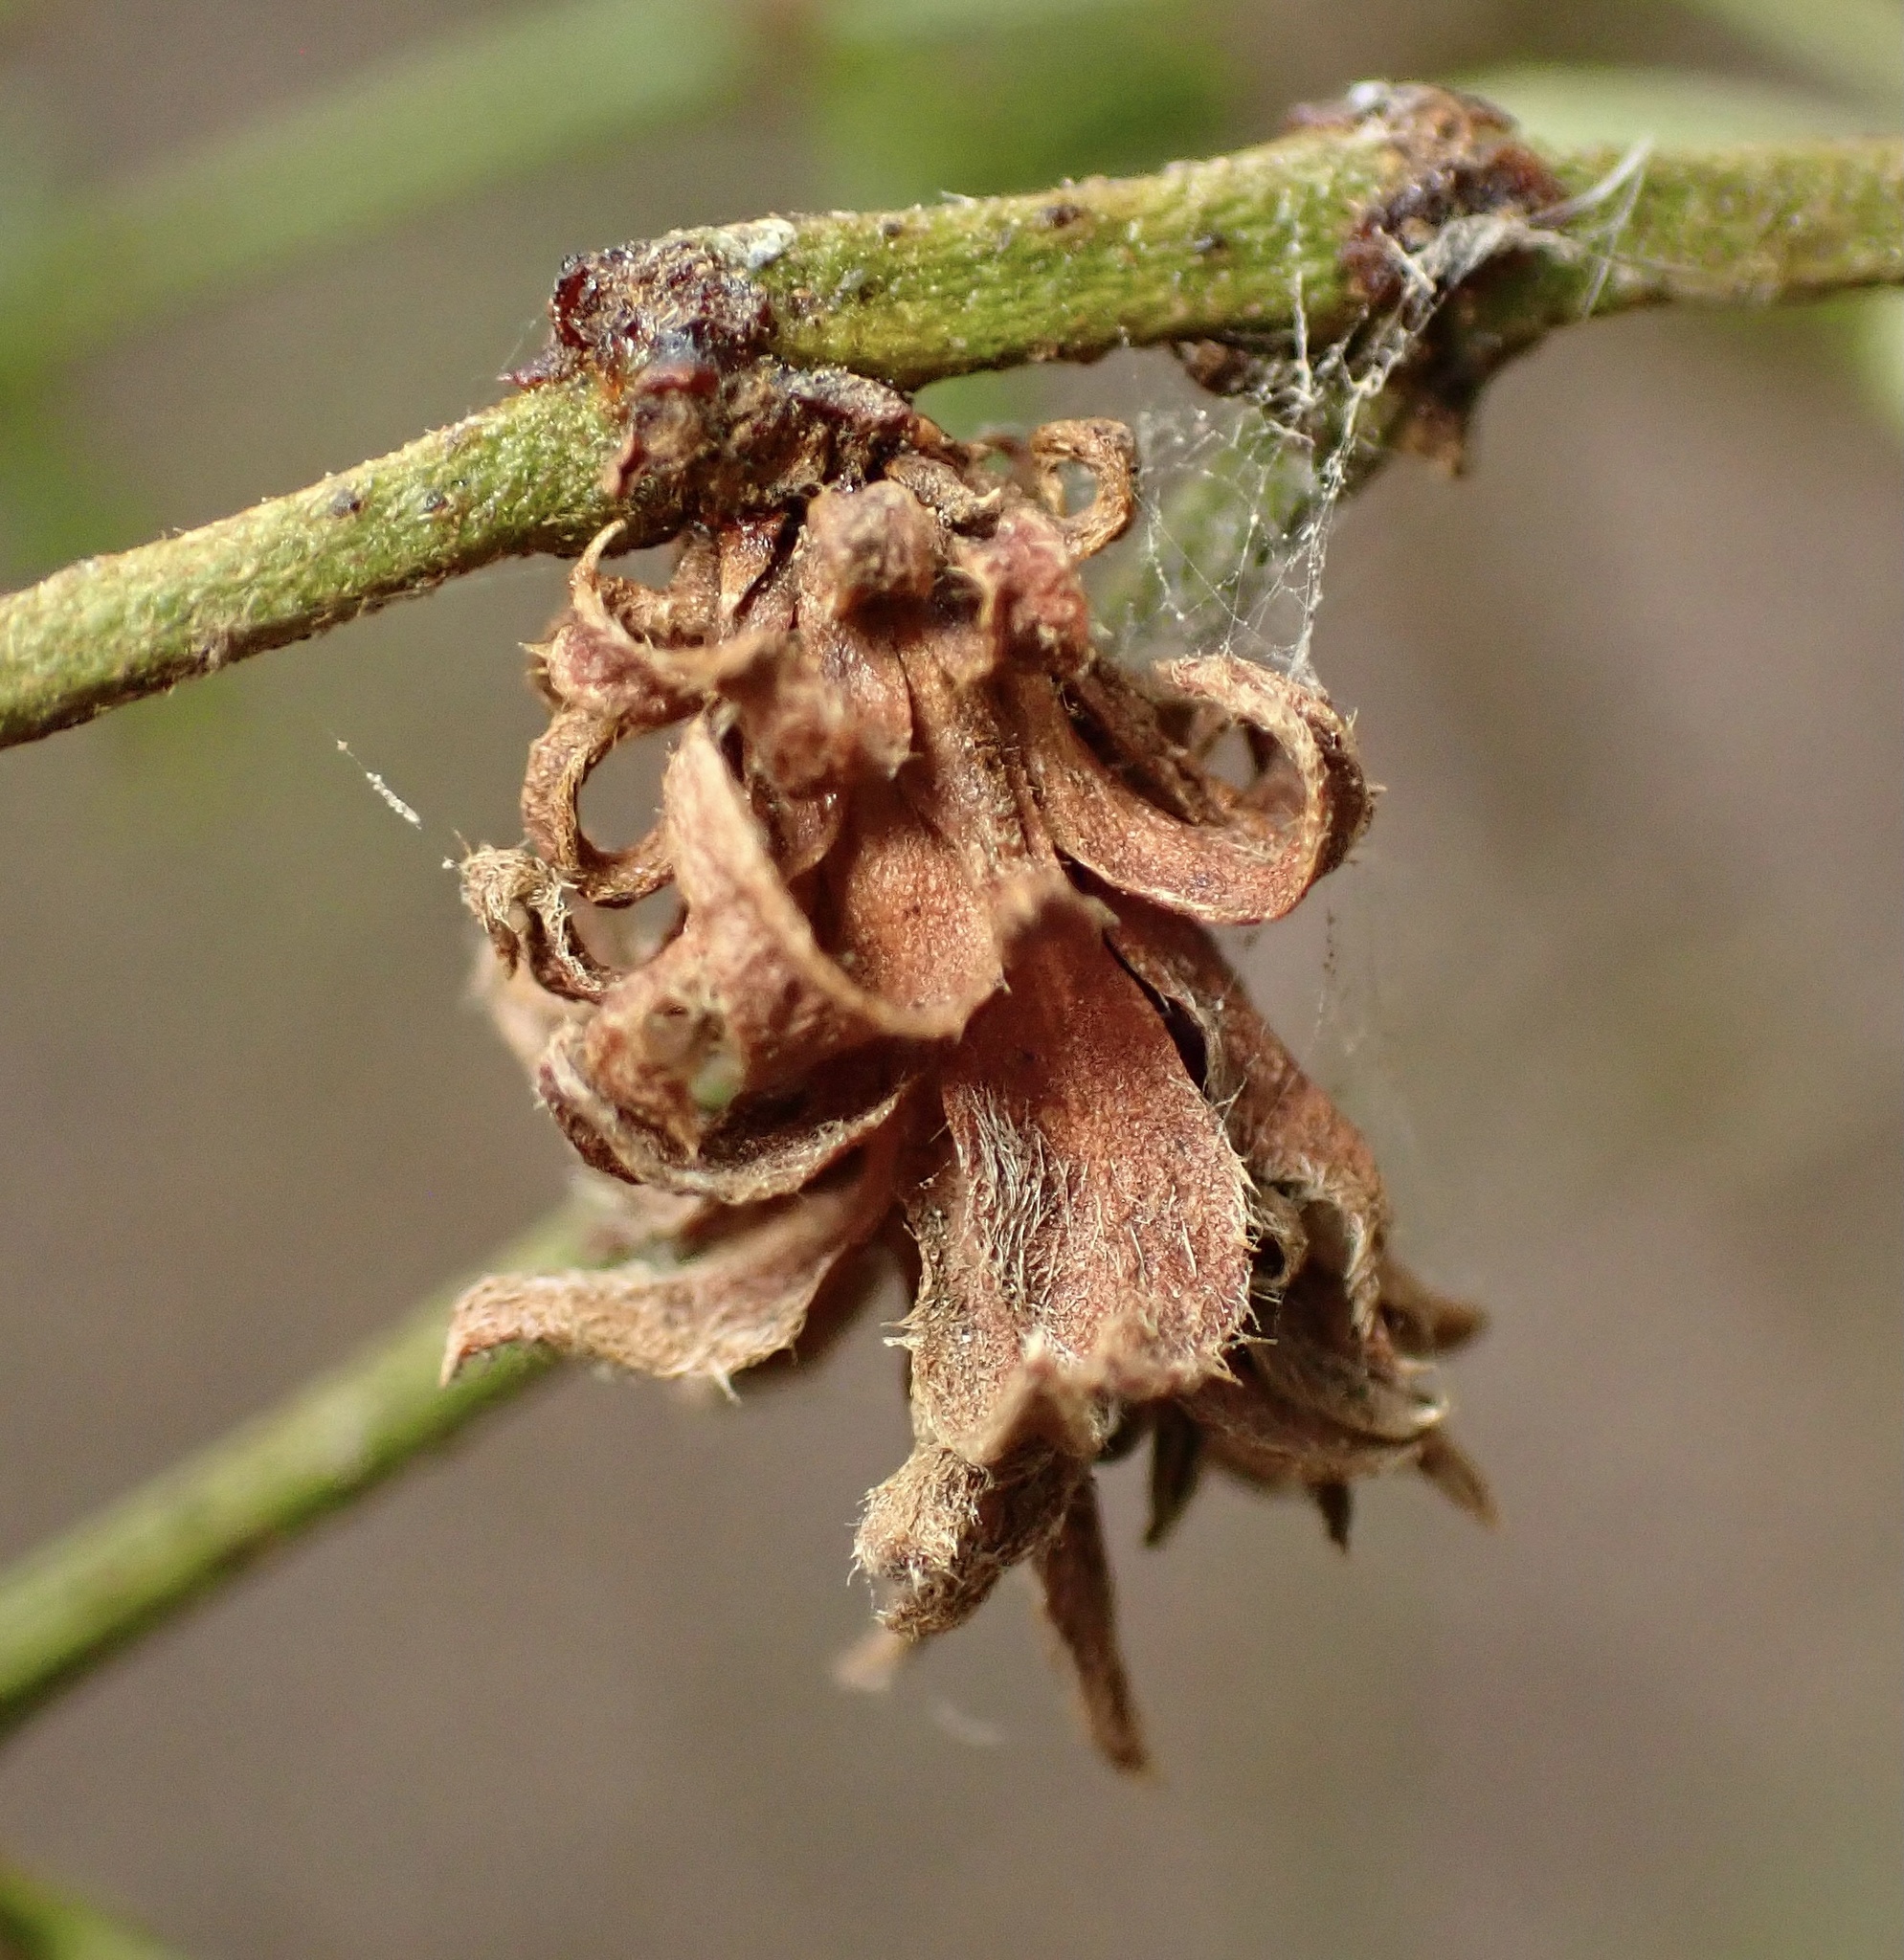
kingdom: Animalia
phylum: Arthropoda
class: Insecta
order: Diptera
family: Cecidomyiidae
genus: Asphondylia
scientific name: Asphondylia rosetta
